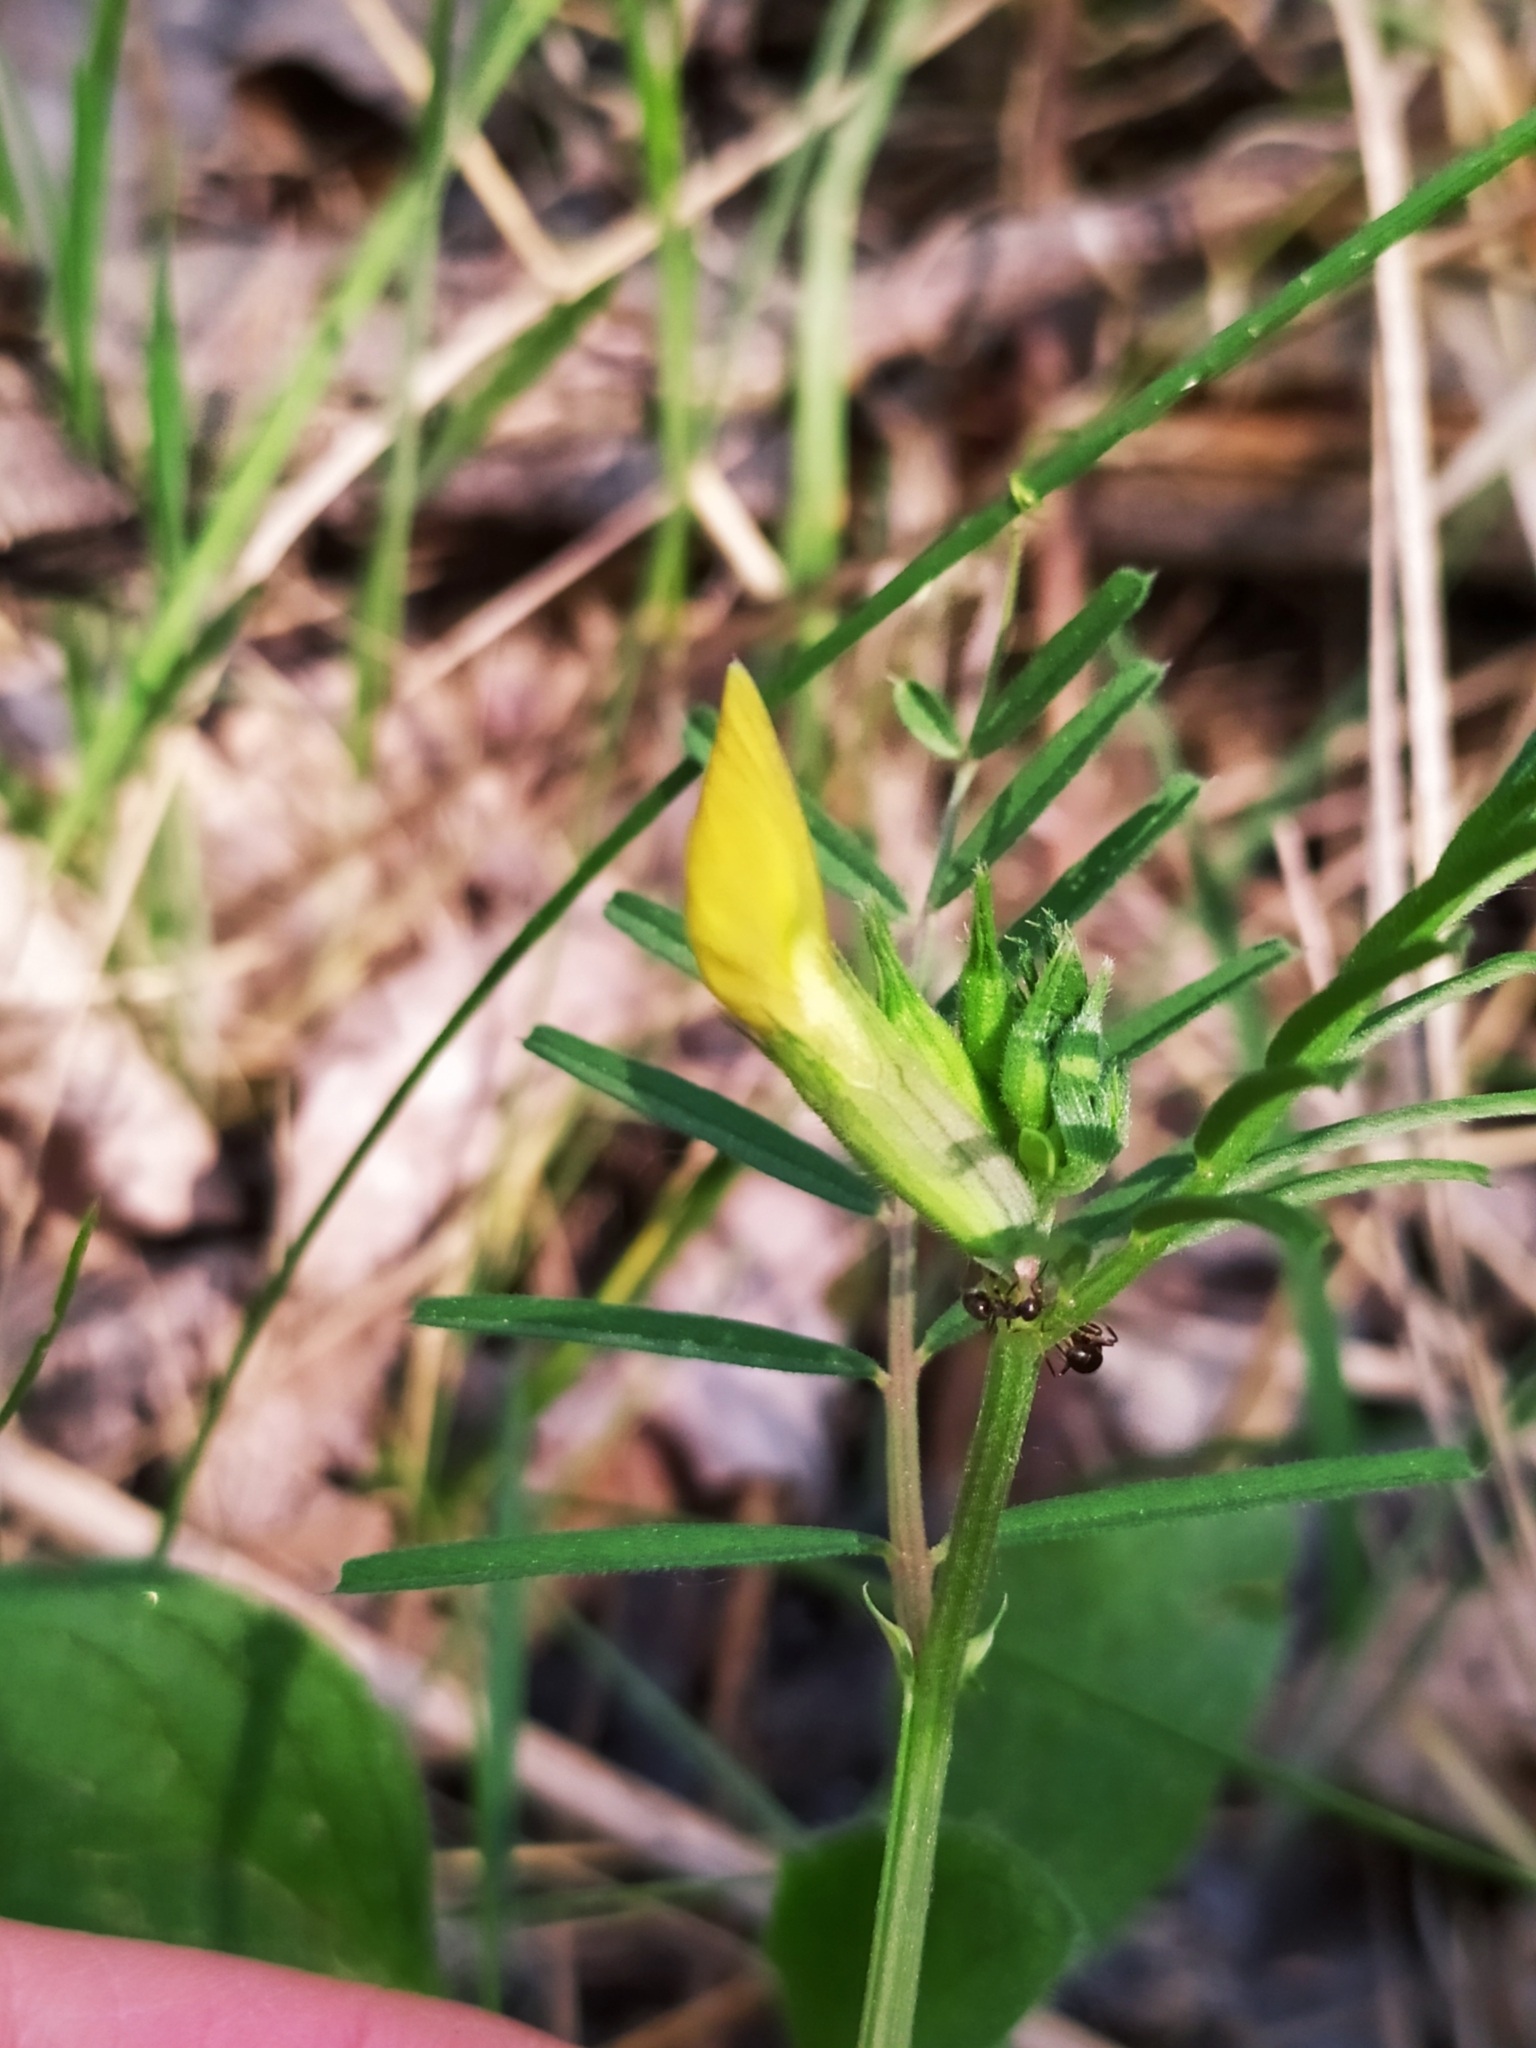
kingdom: Plantae
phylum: Tracheophyta
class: Magnoliopsida
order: Fabales
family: Fabaceae
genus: Vicia
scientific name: Vicia grandiflora
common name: Large yellow vetch
